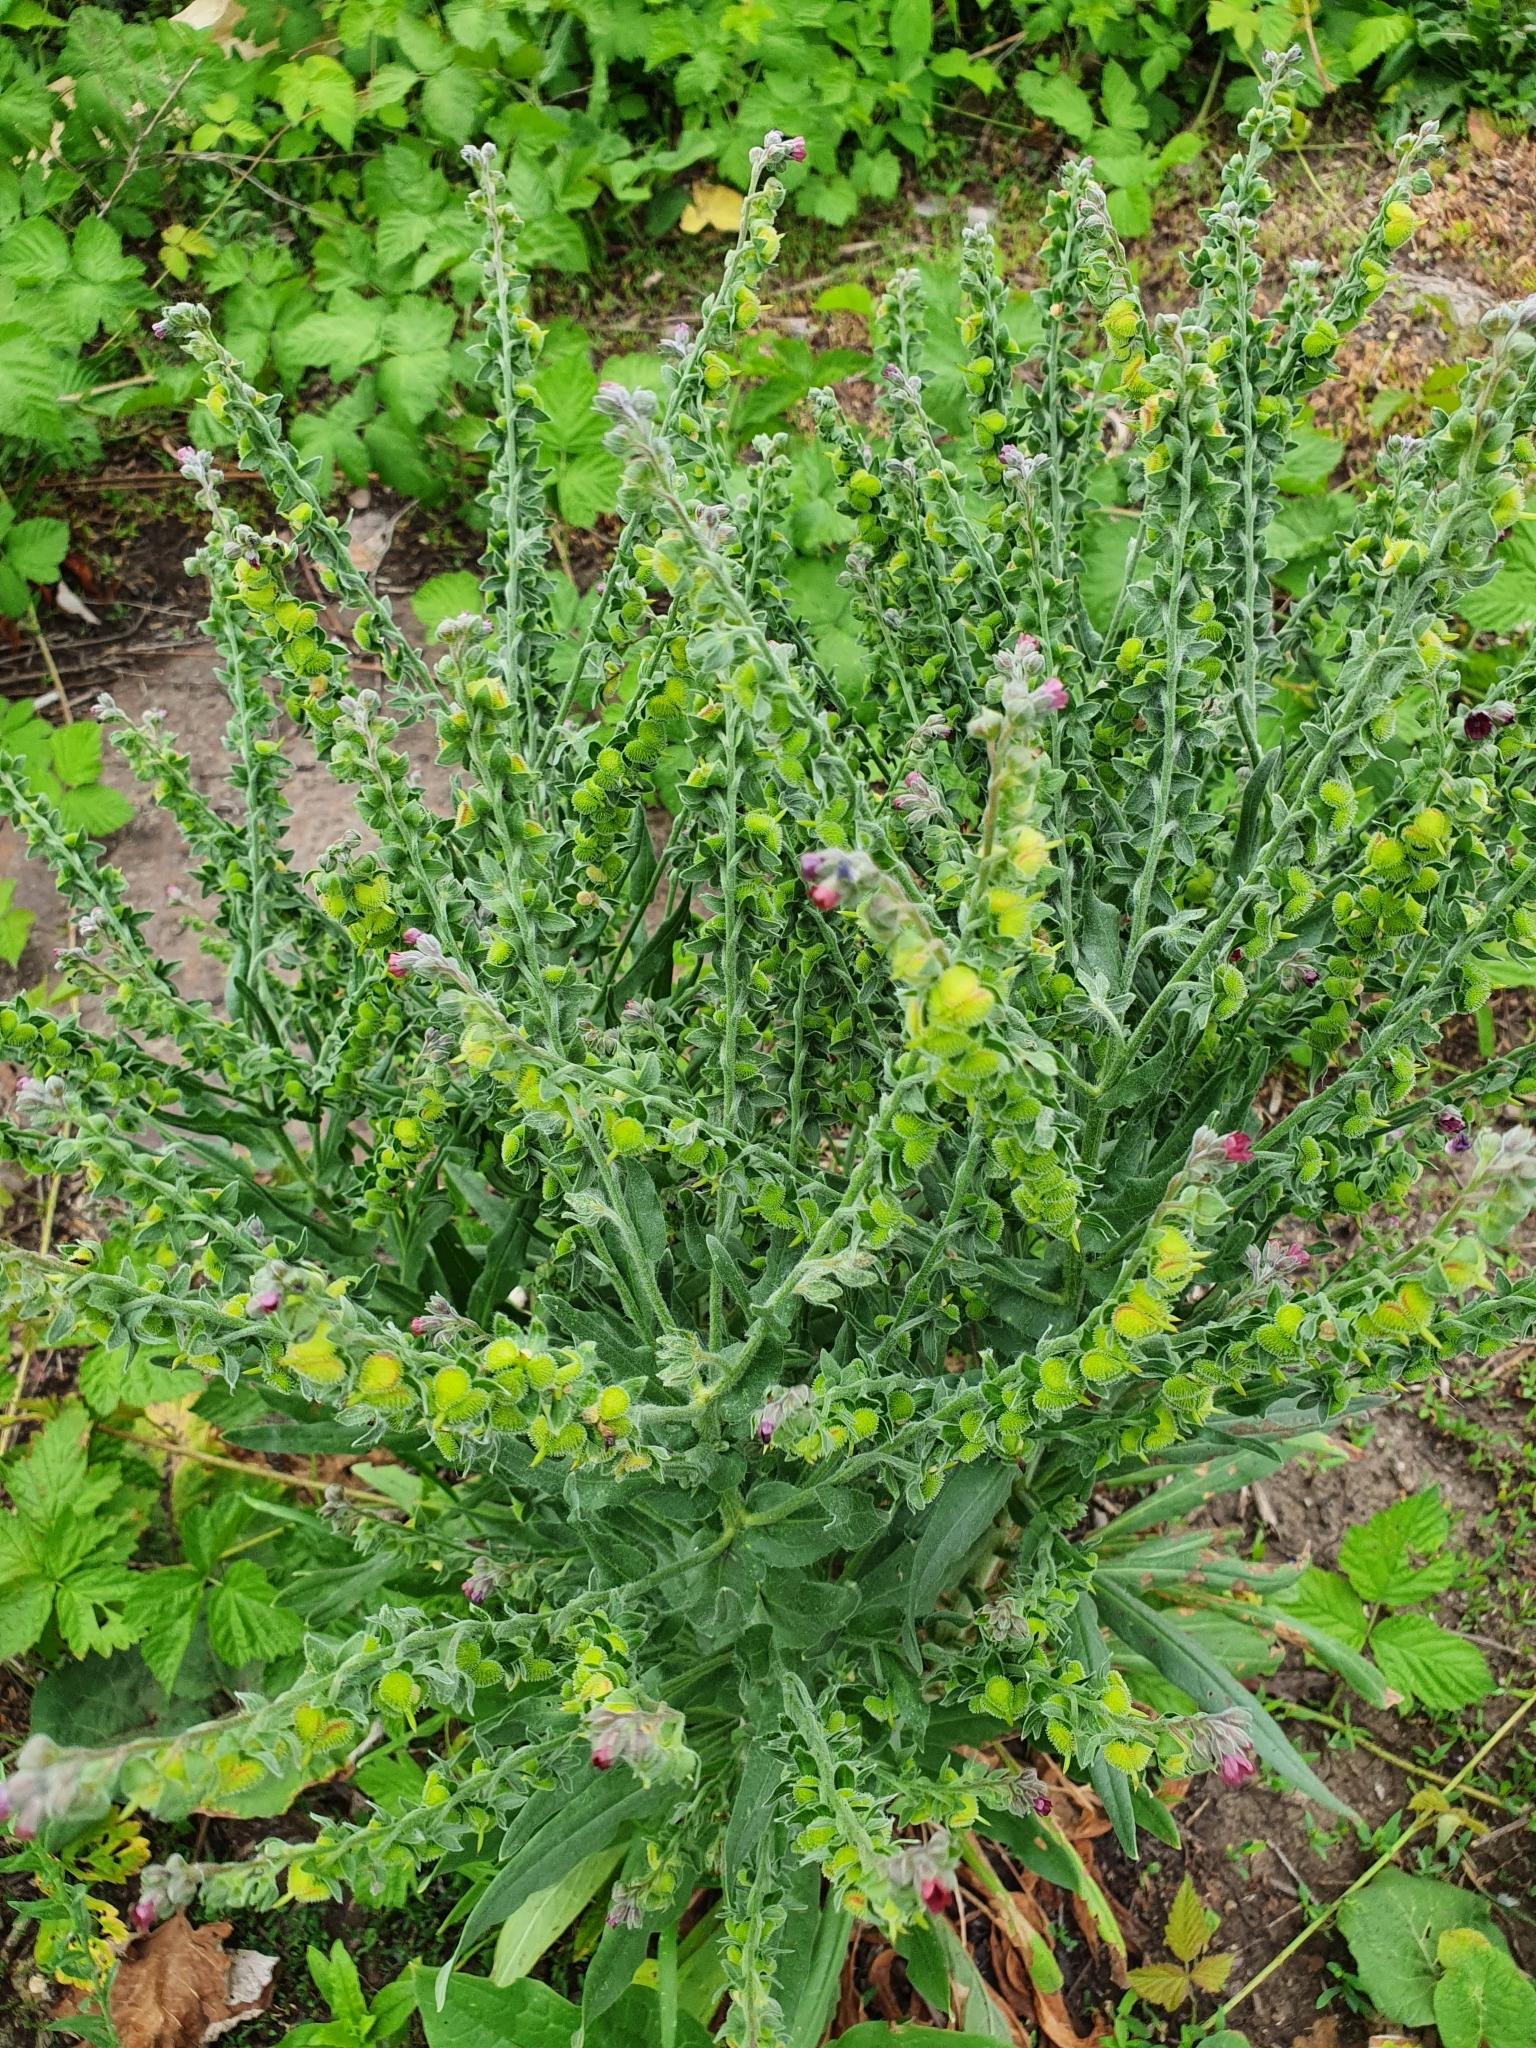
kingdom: Plantae
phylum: Tracheophyta
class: Magnoliopsida
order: Boraginales
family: Boraginaceae
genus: Cynoglossum
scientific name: Cynoglossum officinale
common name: Hound's-tongue
